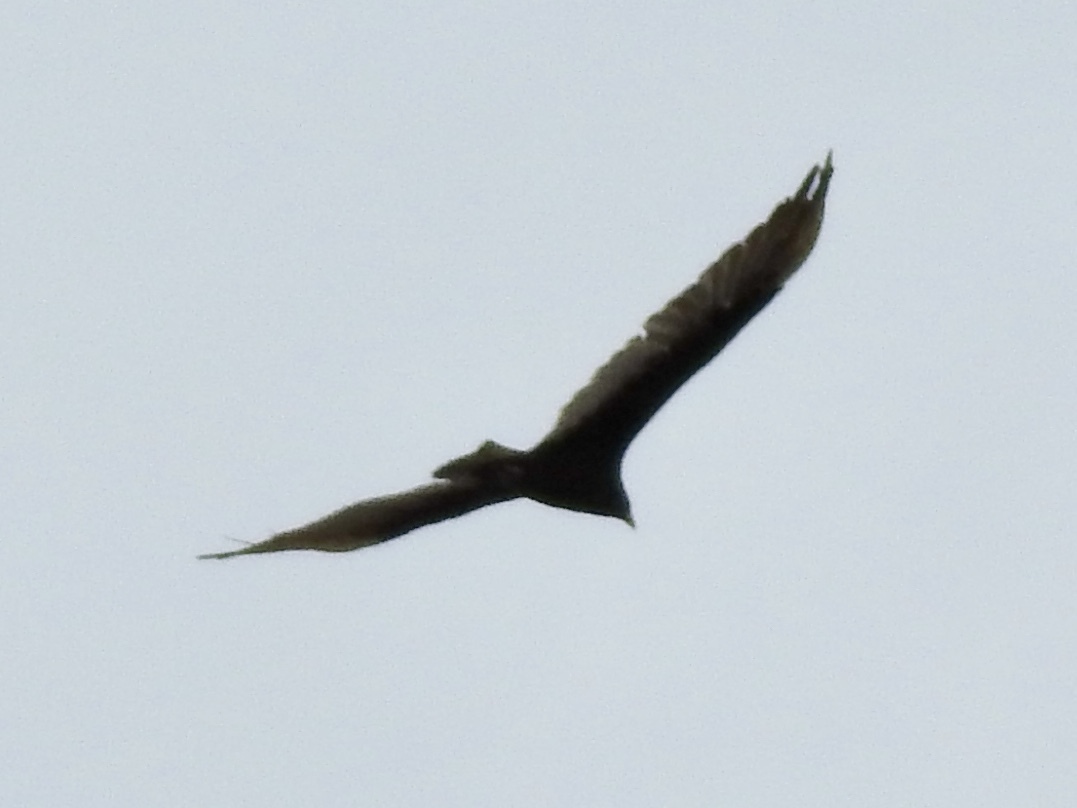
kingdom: Animalia
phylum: Chordata
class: Aves
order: Accipitriformes
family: Cathartidae
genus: Cathartes
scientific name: Cathartes aura
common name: Turkey vulture
